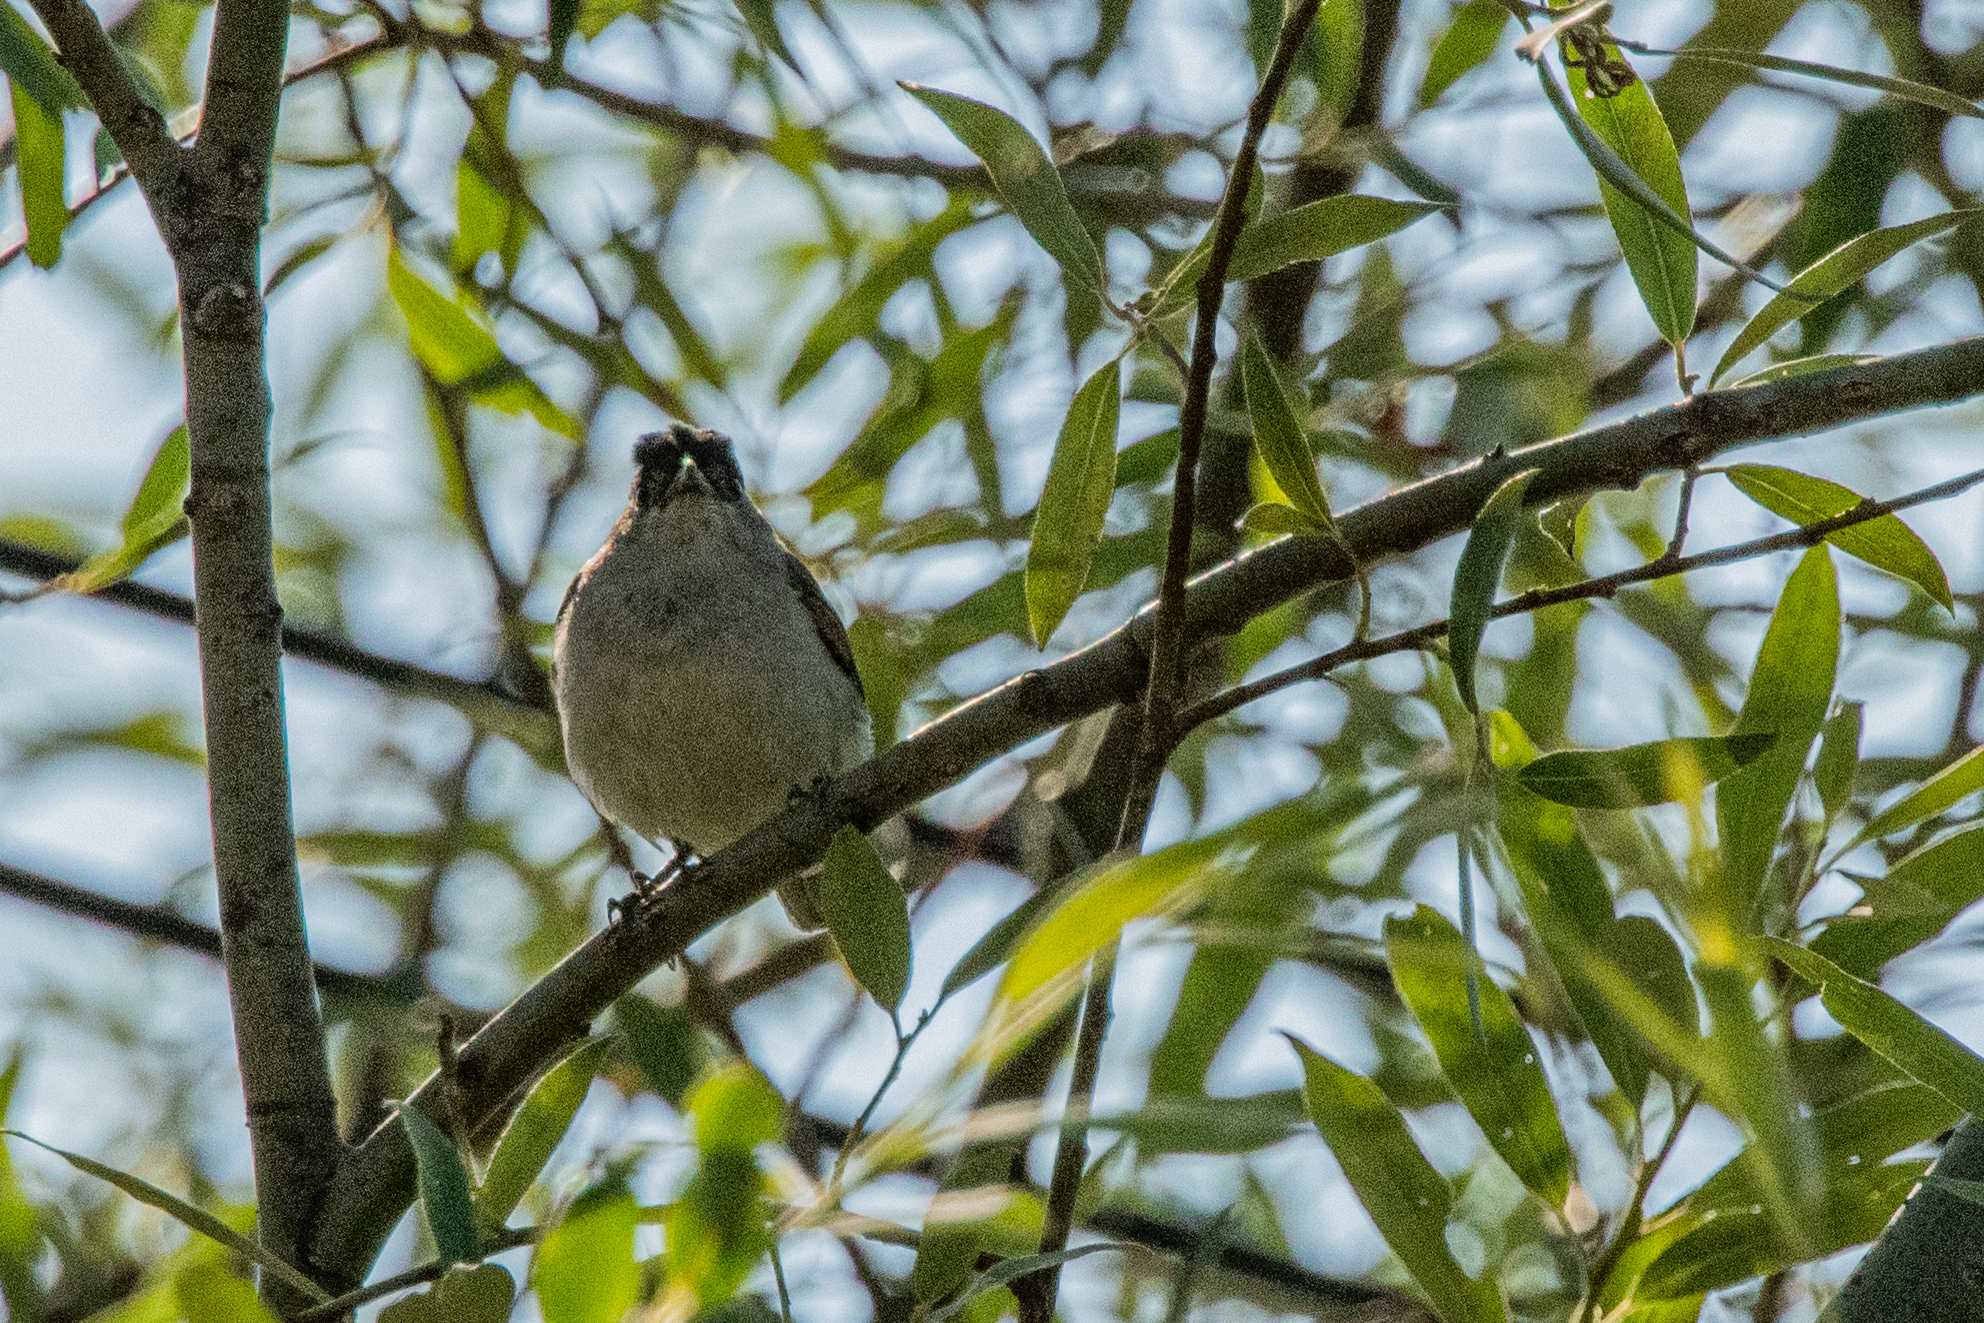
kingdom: Animalia
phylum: Chordata
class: Aves
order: Passeriformes
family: Sylviidae
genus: Sylvia
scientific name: Sylvia atricapilla
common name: Eurasian blackcap
